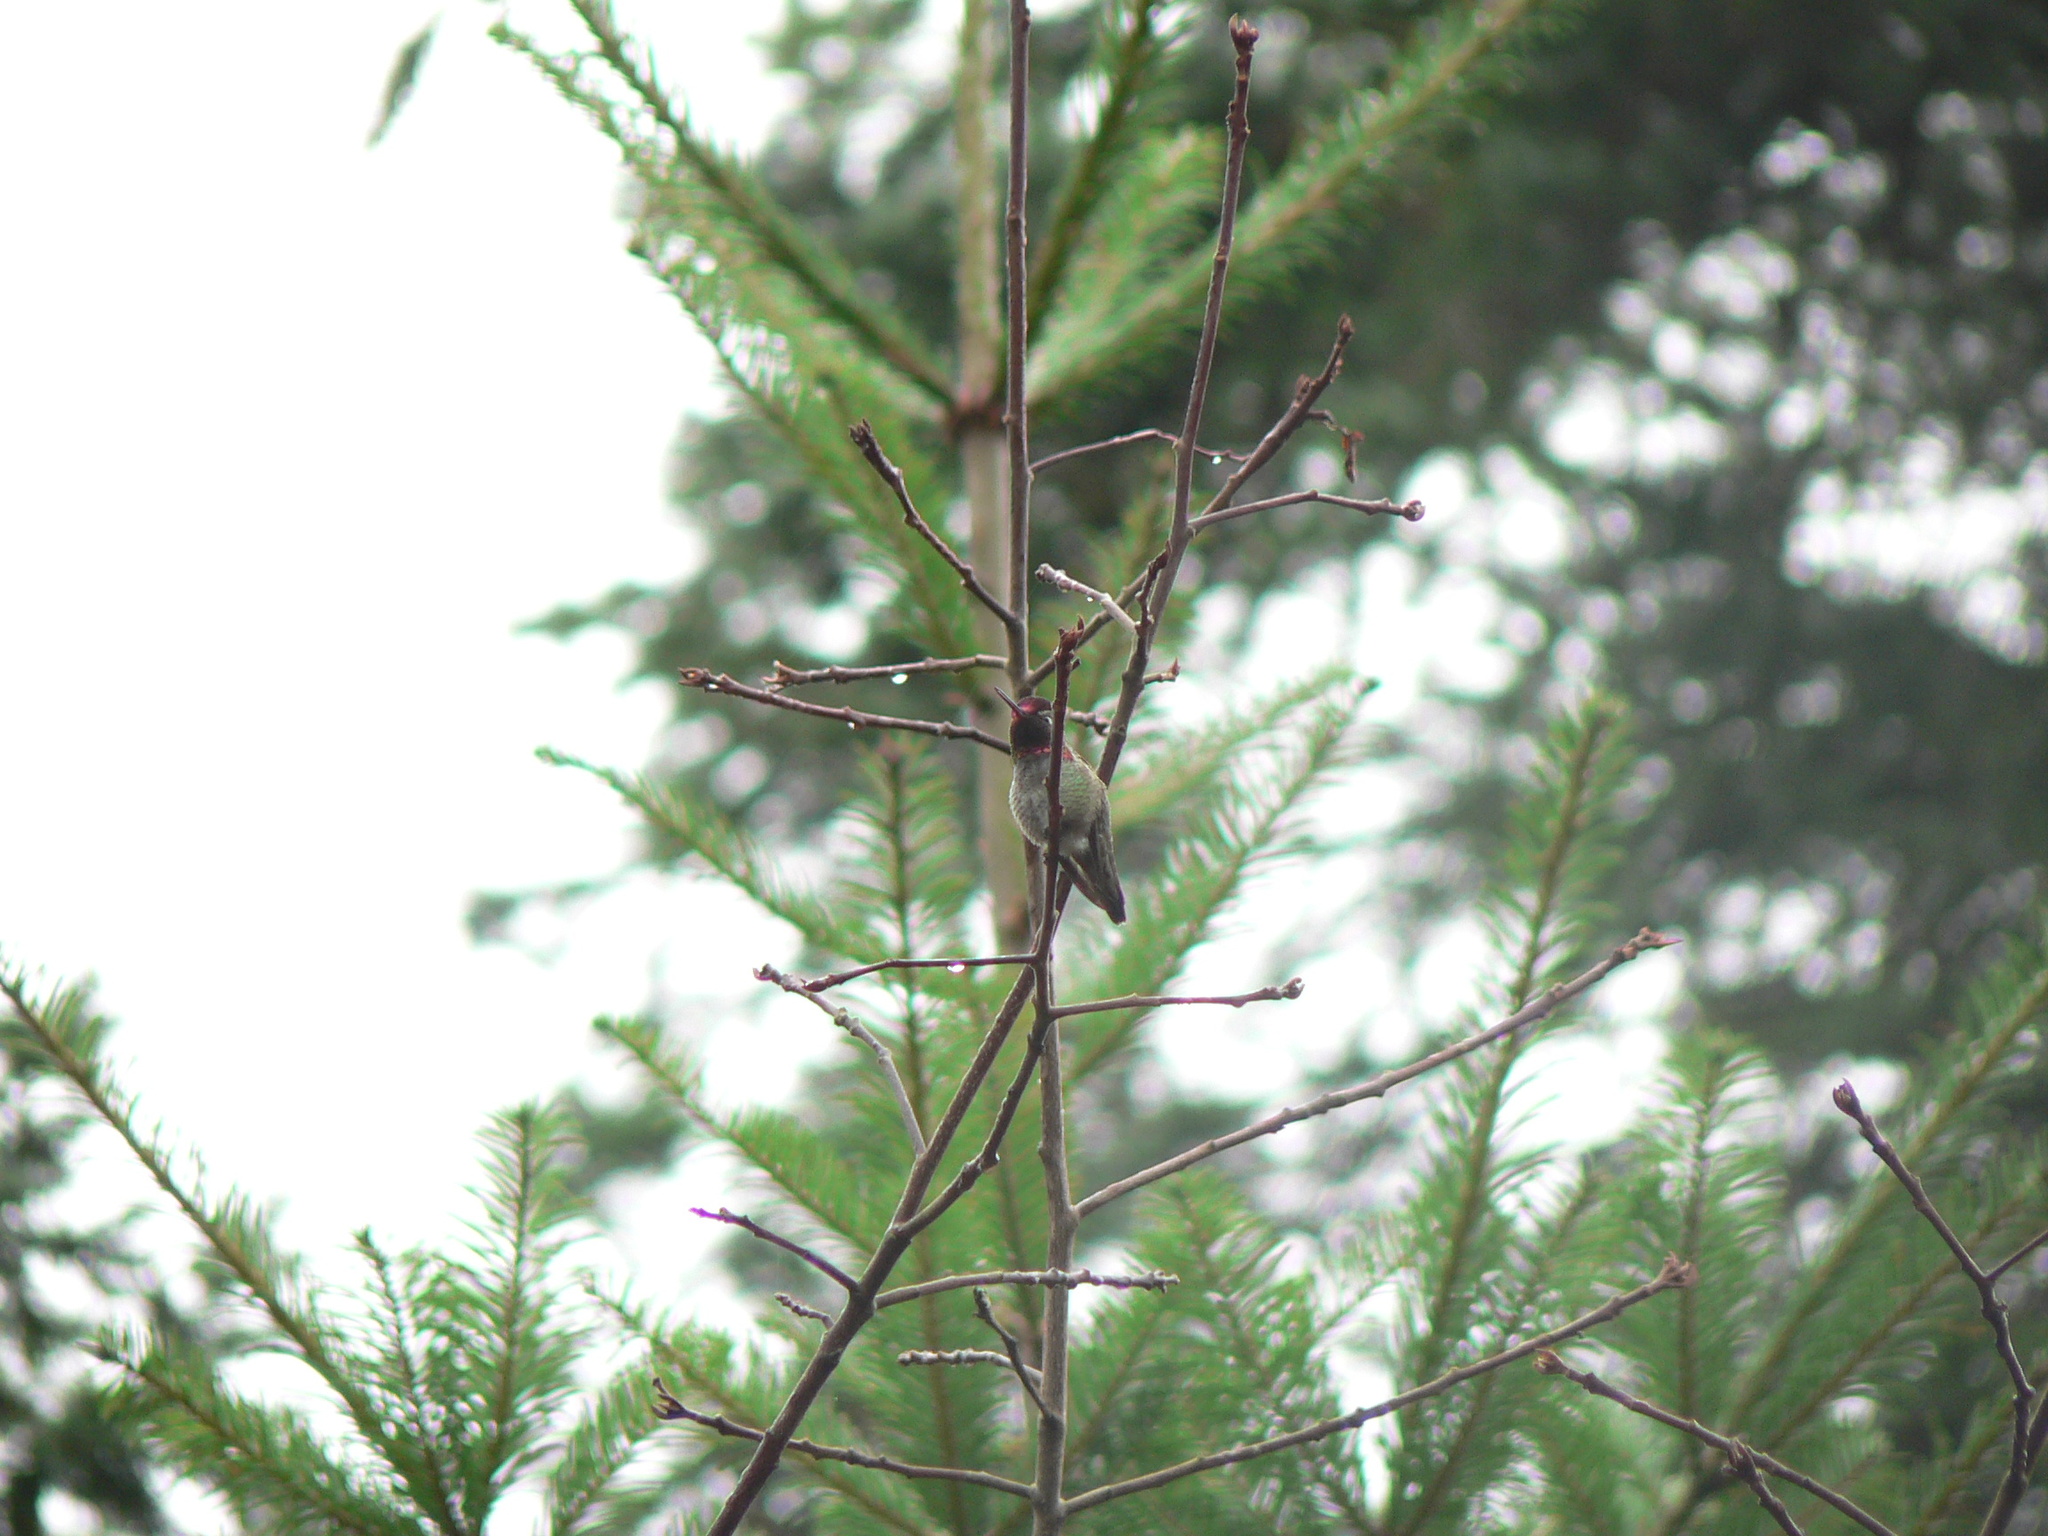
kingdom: Animalia
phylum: Chordata
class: Aves
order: Apodiformes
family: Trochilidae
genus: Calypte
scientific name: Calypte anna
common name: Anna's hummingbird
